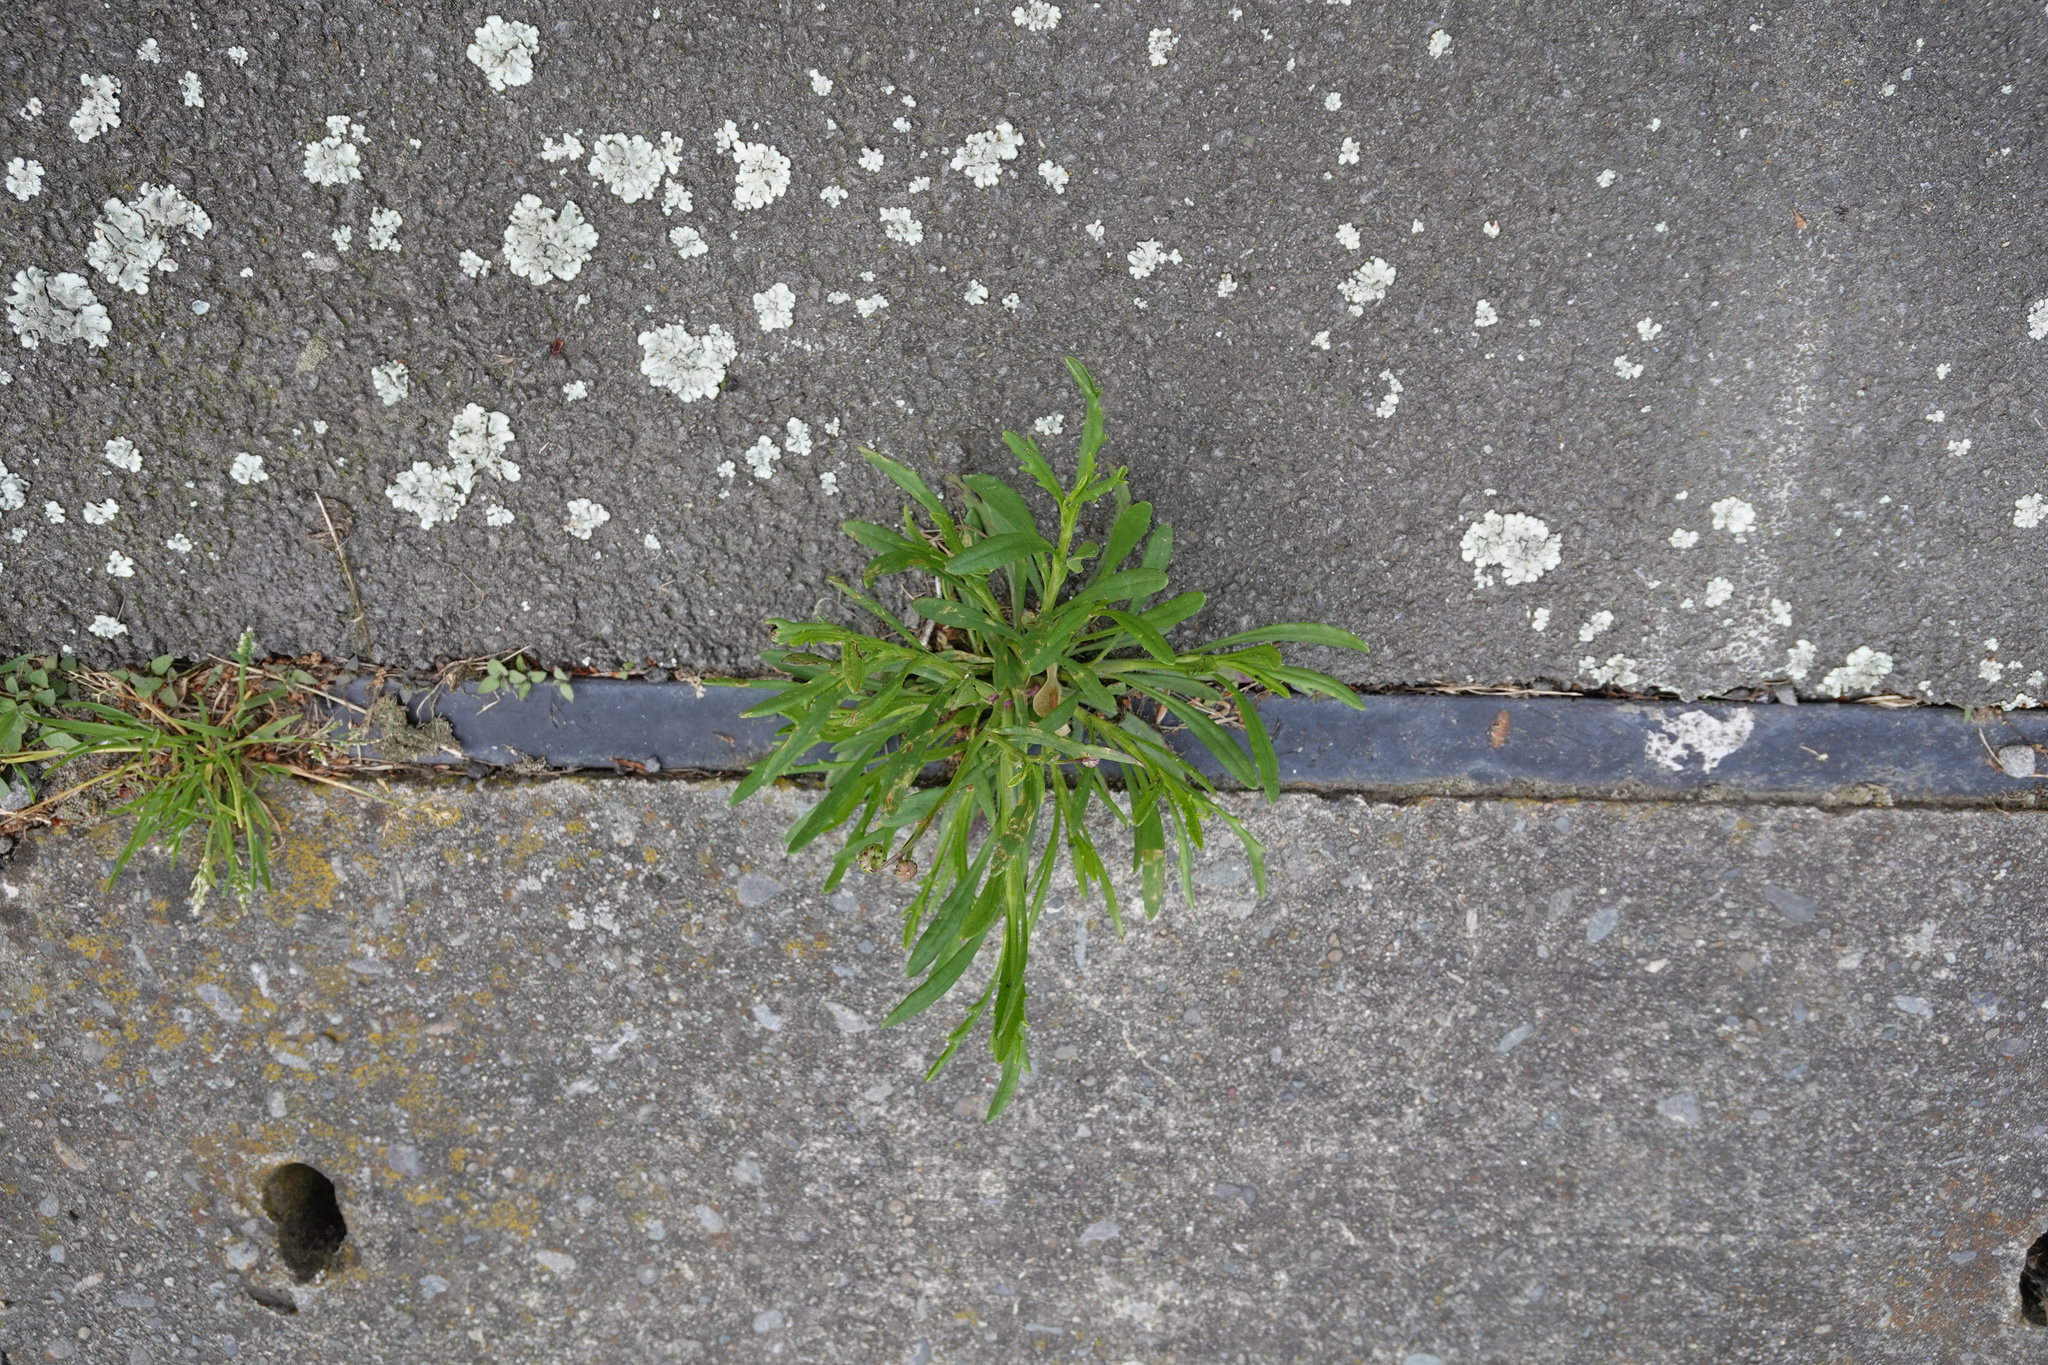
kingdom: Plantae
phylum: Tracheophyta
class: Magnoliopsida
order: Asterales
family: Asteraceae
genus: Senecio
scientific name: Senecio skirrhodon
